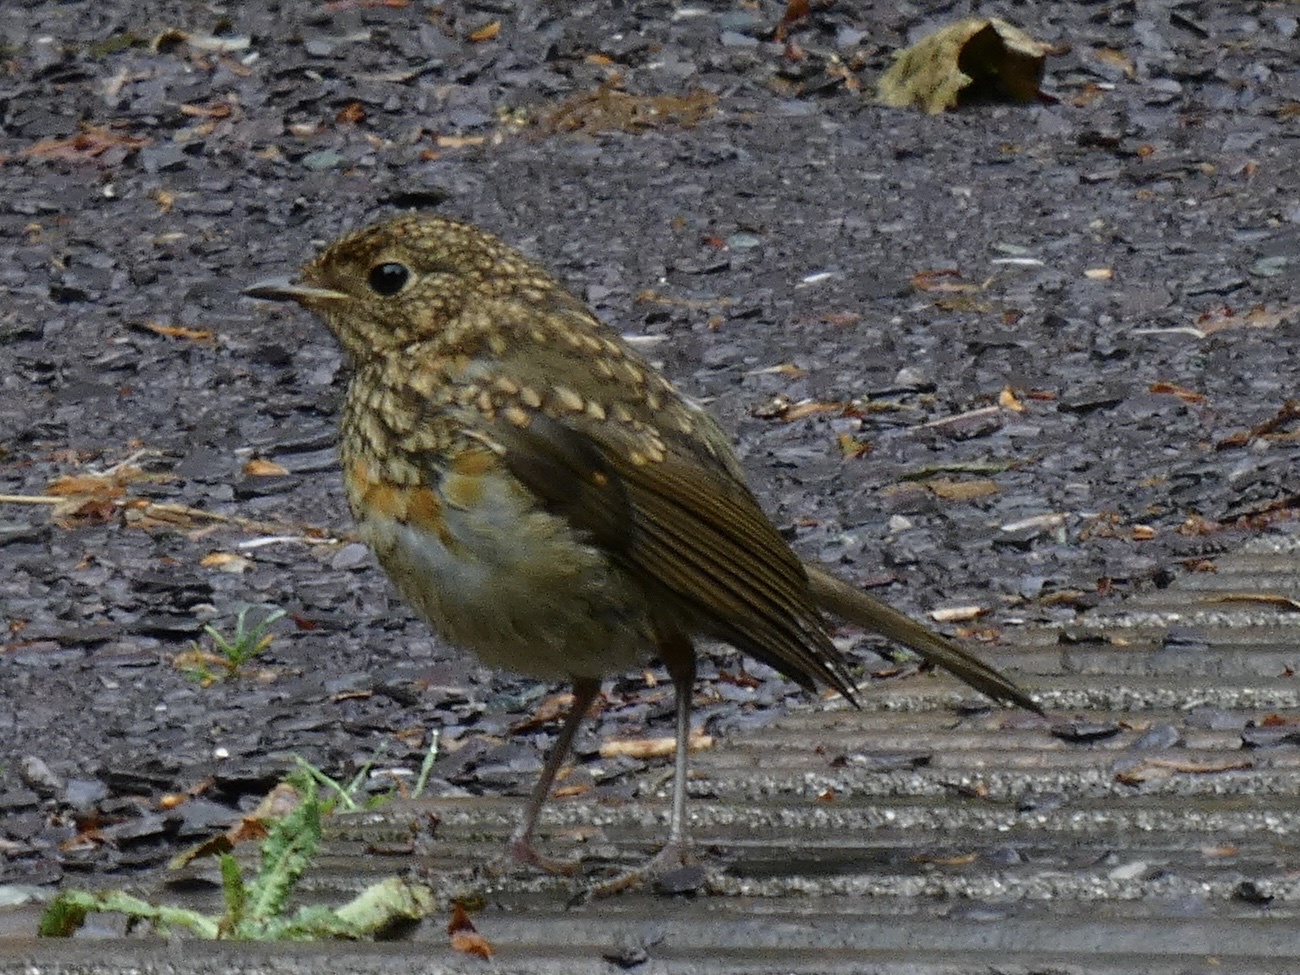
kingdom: Animalia
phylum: Chordata
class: Aves
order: Passeriformes
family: Muscicapidae
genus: Erithacus
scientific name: Erithacus rubecula
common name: European robin
